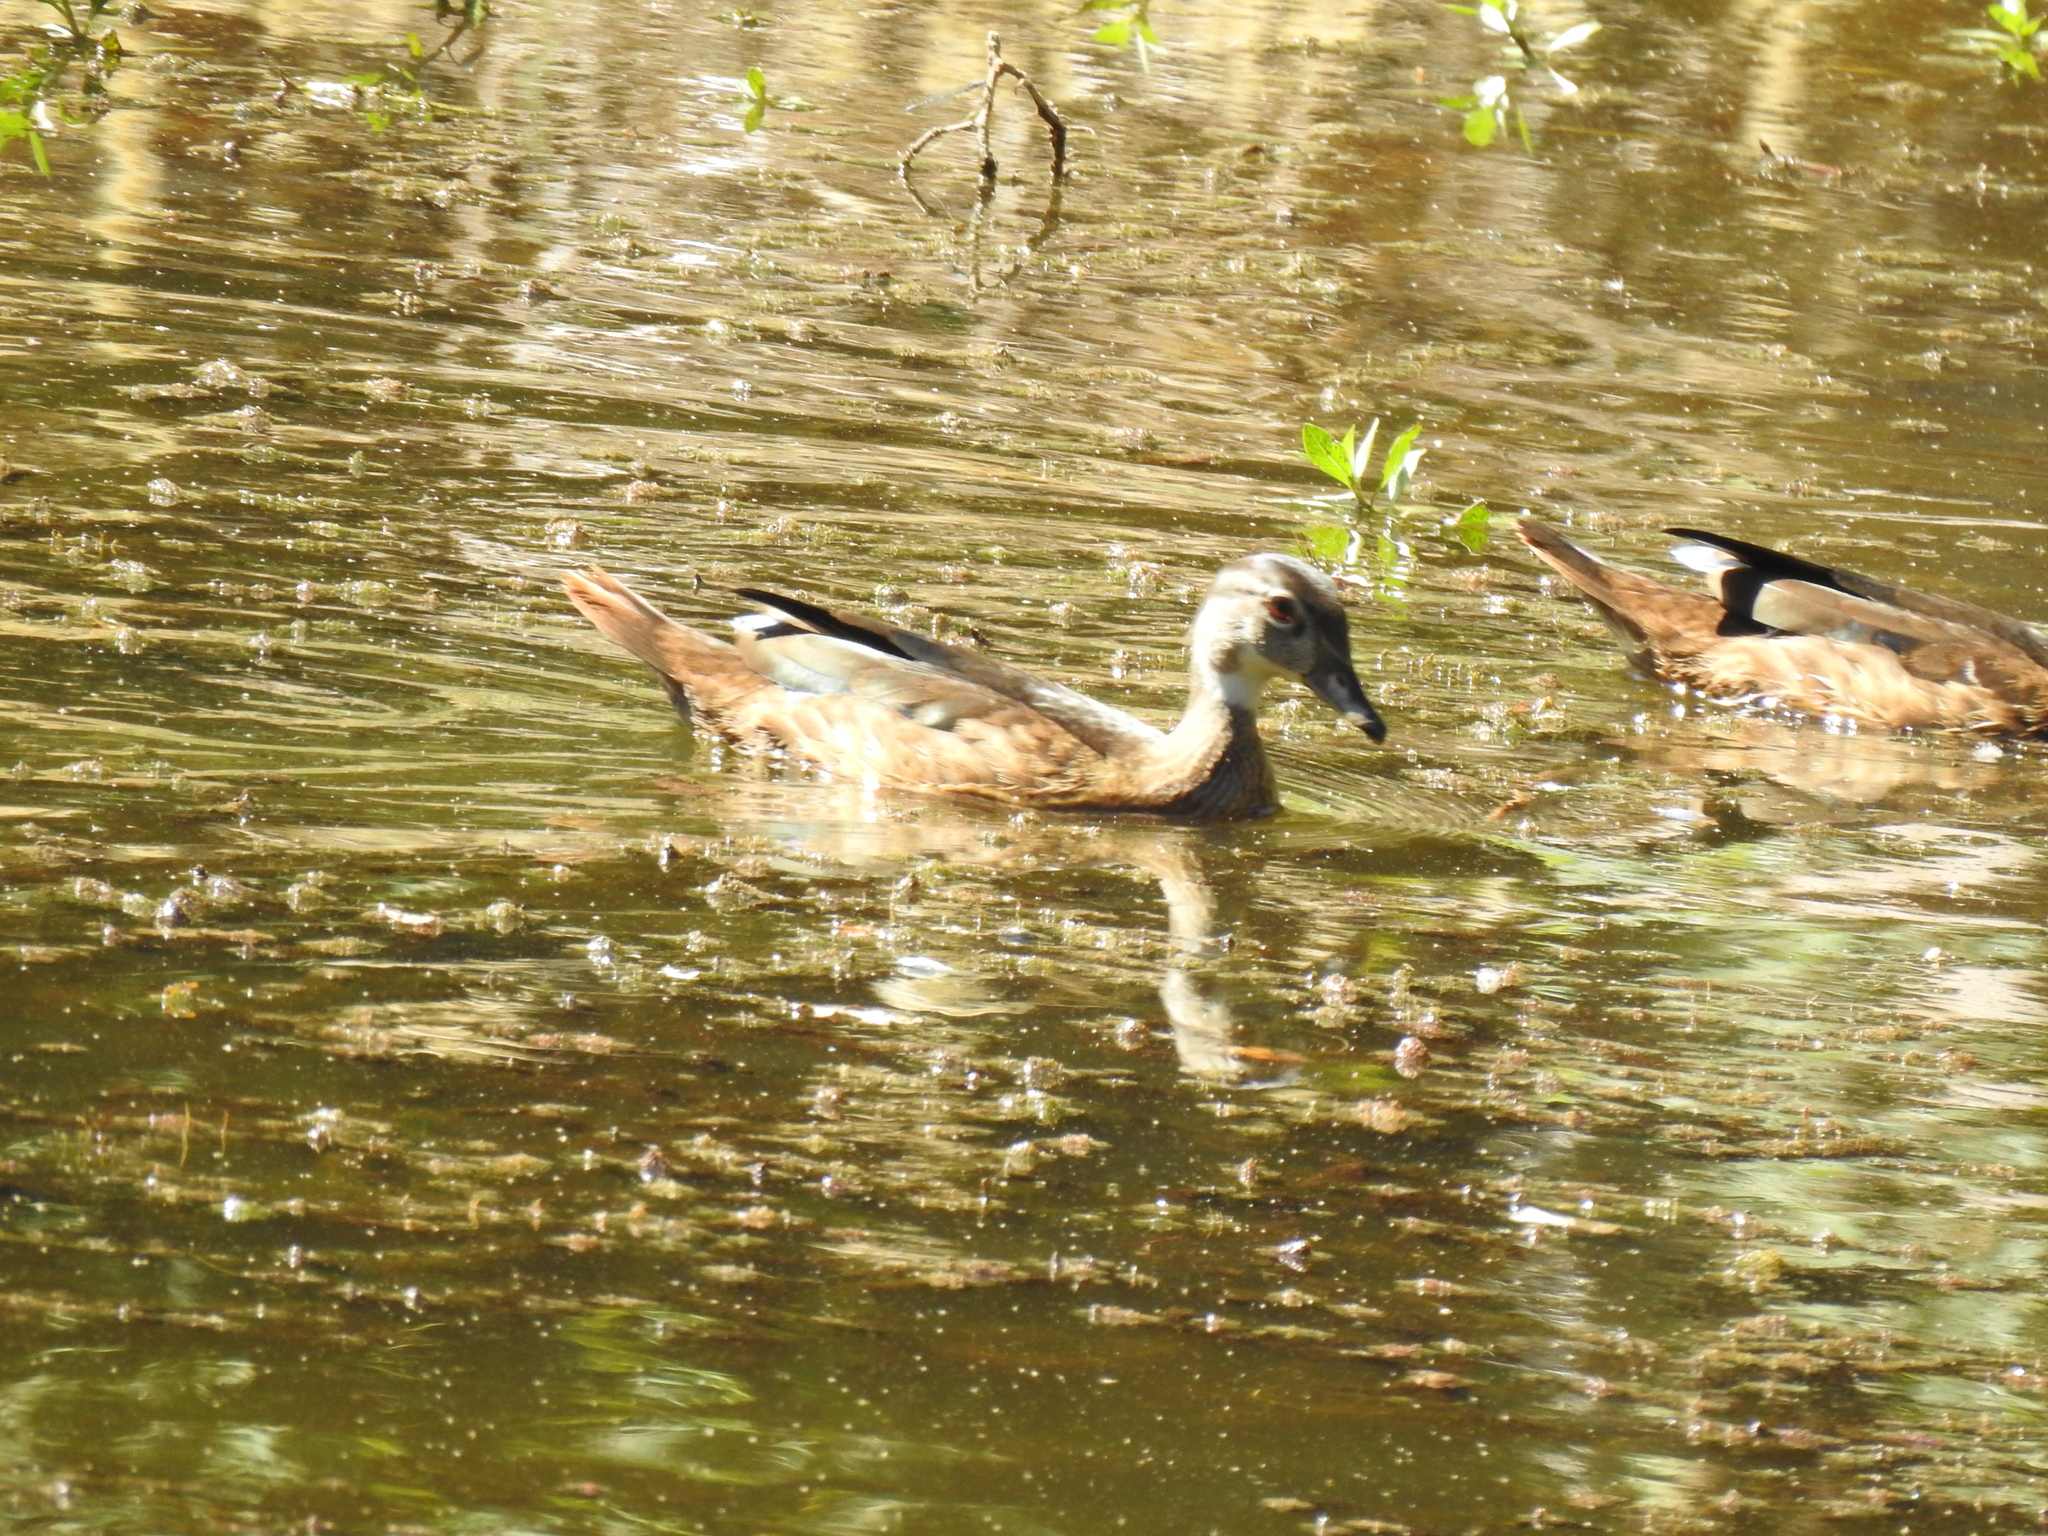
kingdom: Animalia
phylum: Chordata
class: Aves
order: Anseriformes
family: Anatidae
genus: Aix
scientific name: Aix sponsa
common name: Wood duck
